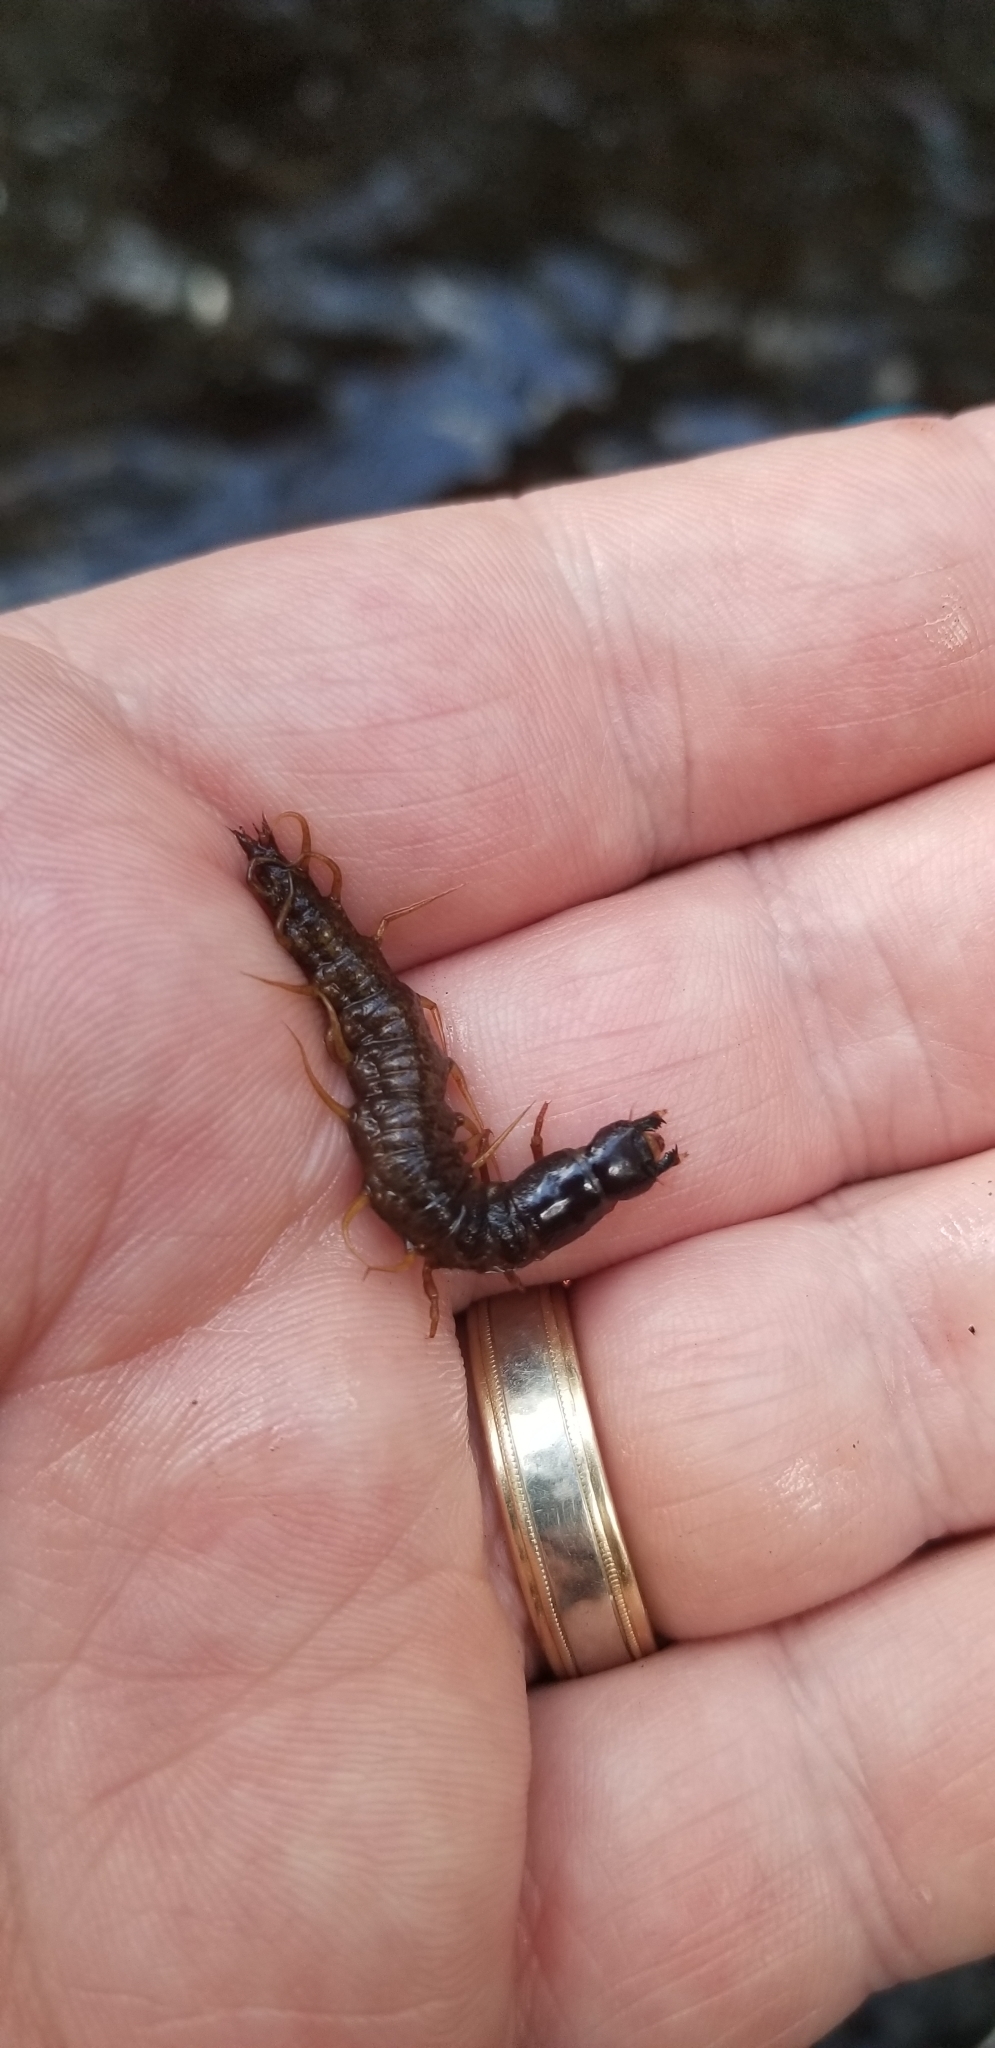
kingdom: Animalia
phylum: Arthropoda
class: Insecta
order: Megaloptera
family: Corydalidae
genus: Nigronia
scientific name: Nigronia serricornis
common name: Serrate dark fishfly
